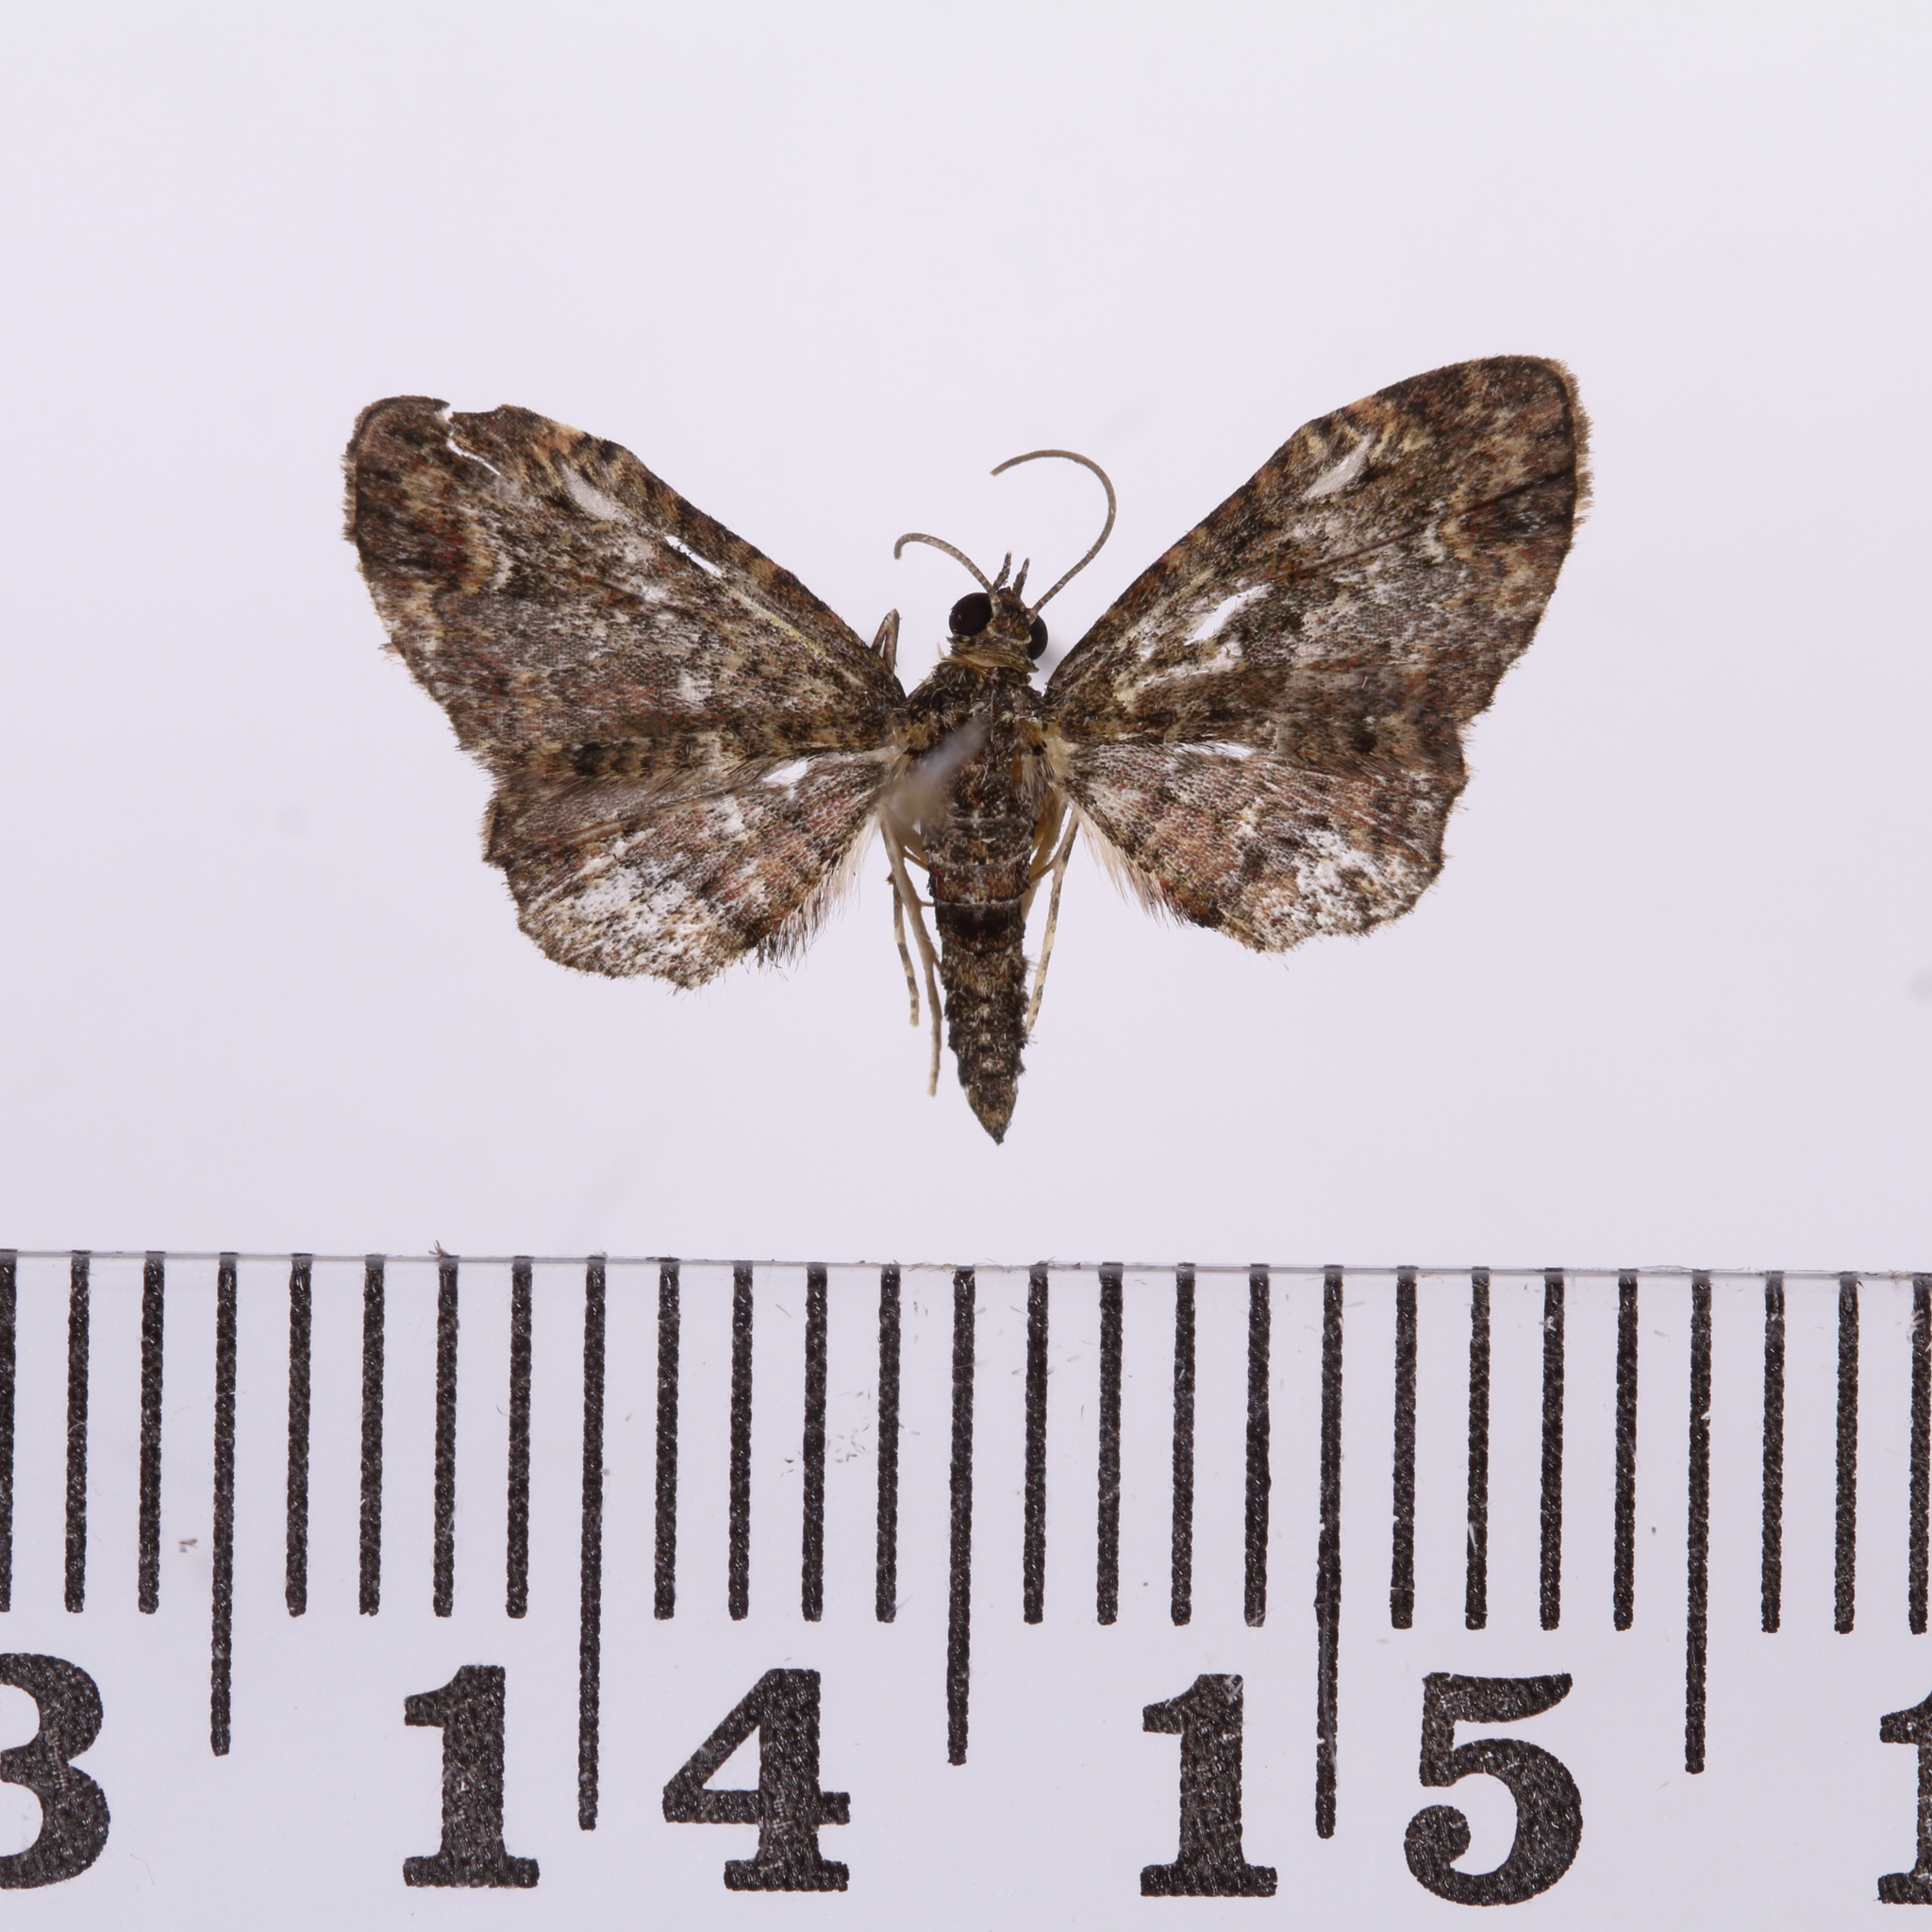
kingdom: Animalia
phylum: Arthropoda
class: Insecta
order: Lepidoptera
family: Geometridae
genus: Pasiphilodes
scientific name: Pasiphilodes testulata
